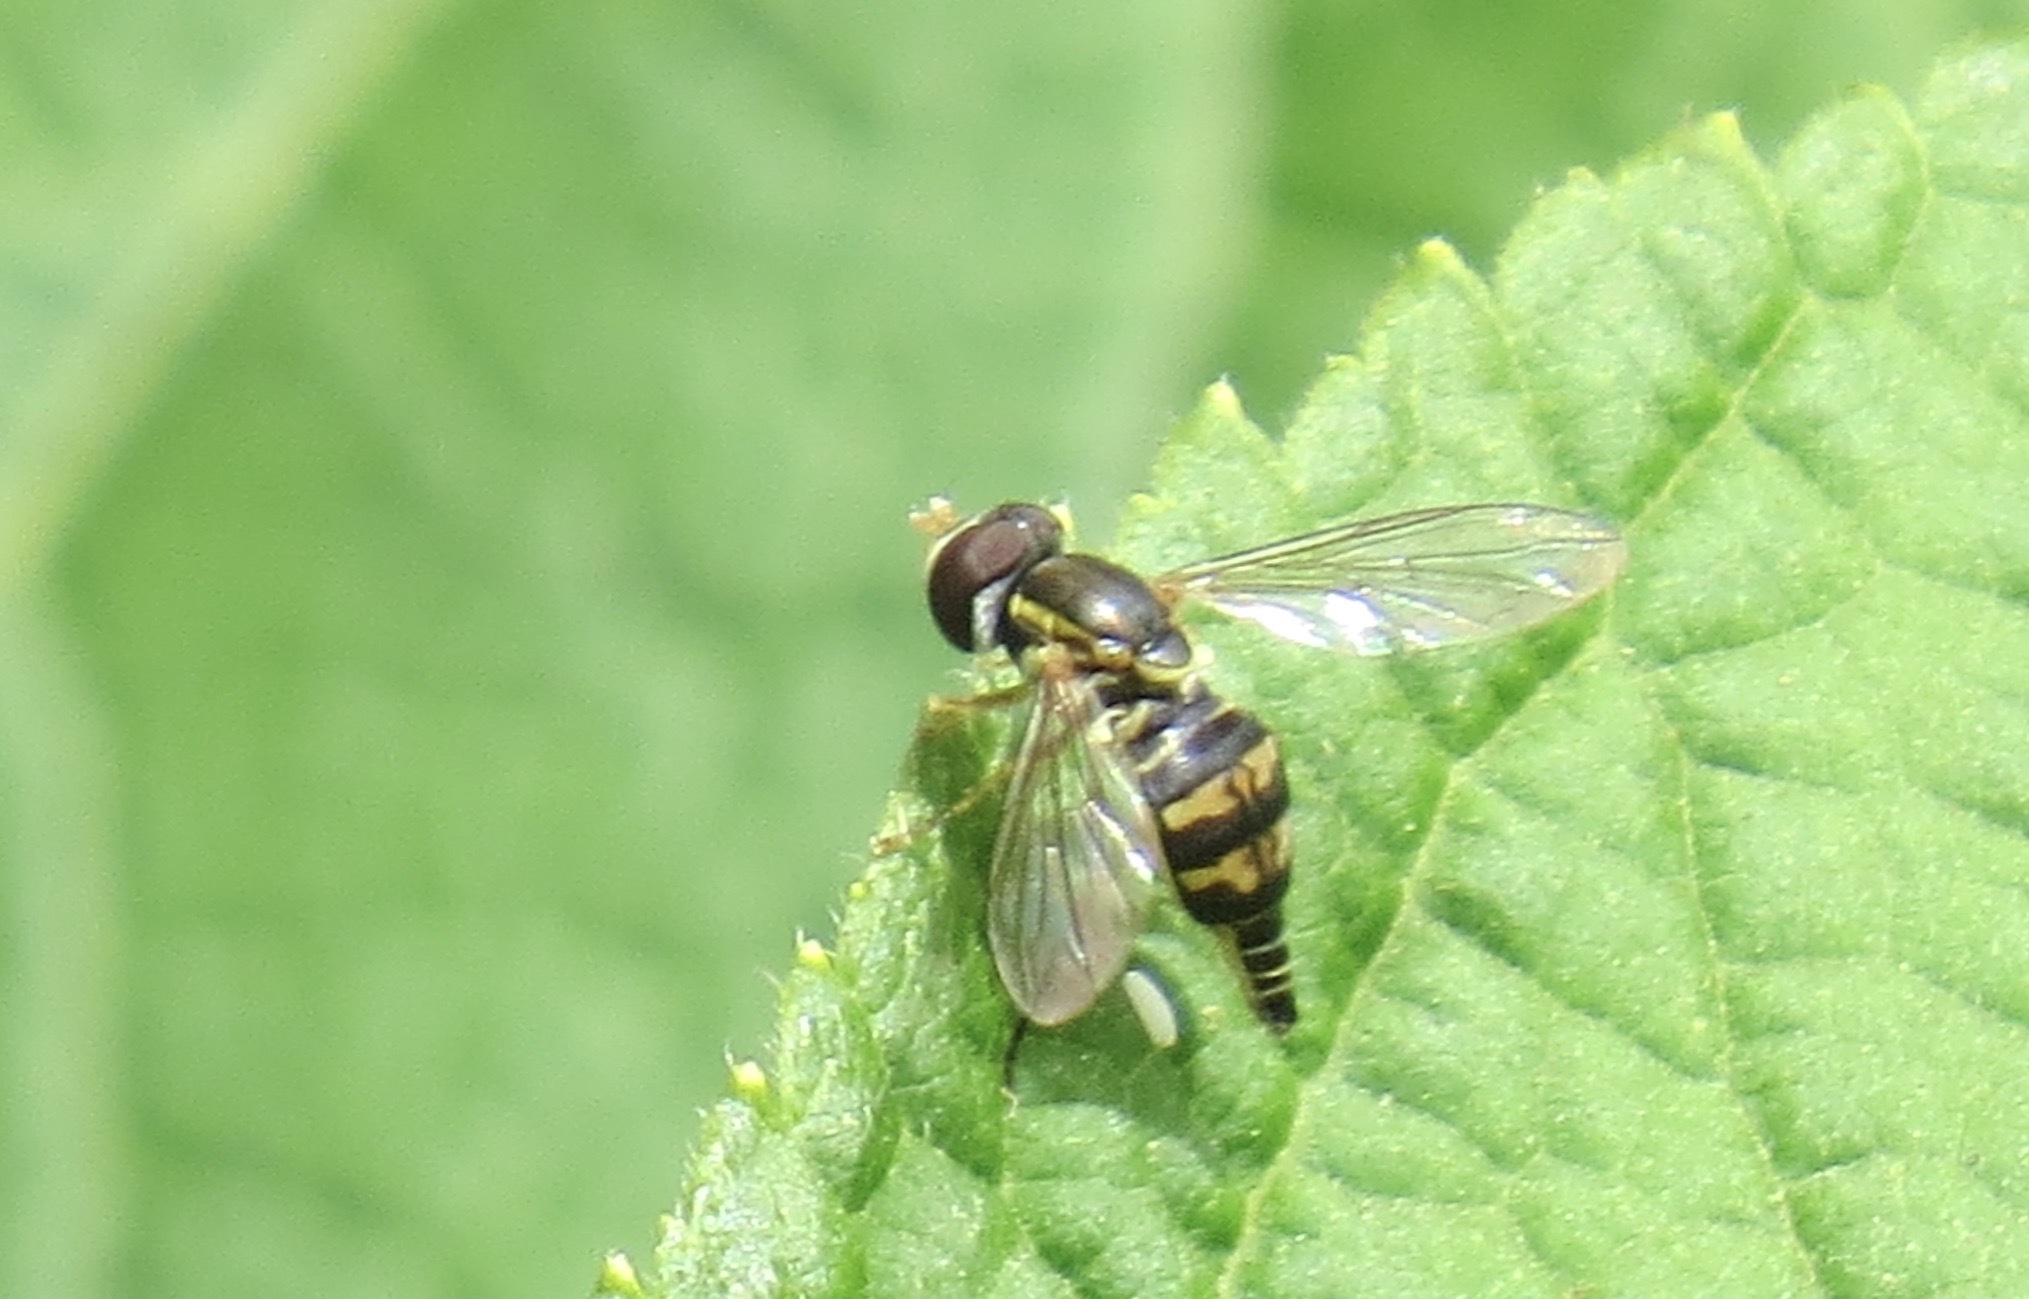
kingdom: Animalia
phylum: Arthropoda
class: Insecta
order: Diptera
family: Syrphidae
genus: Toxomerus
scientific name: Toxomerus occidentalis
